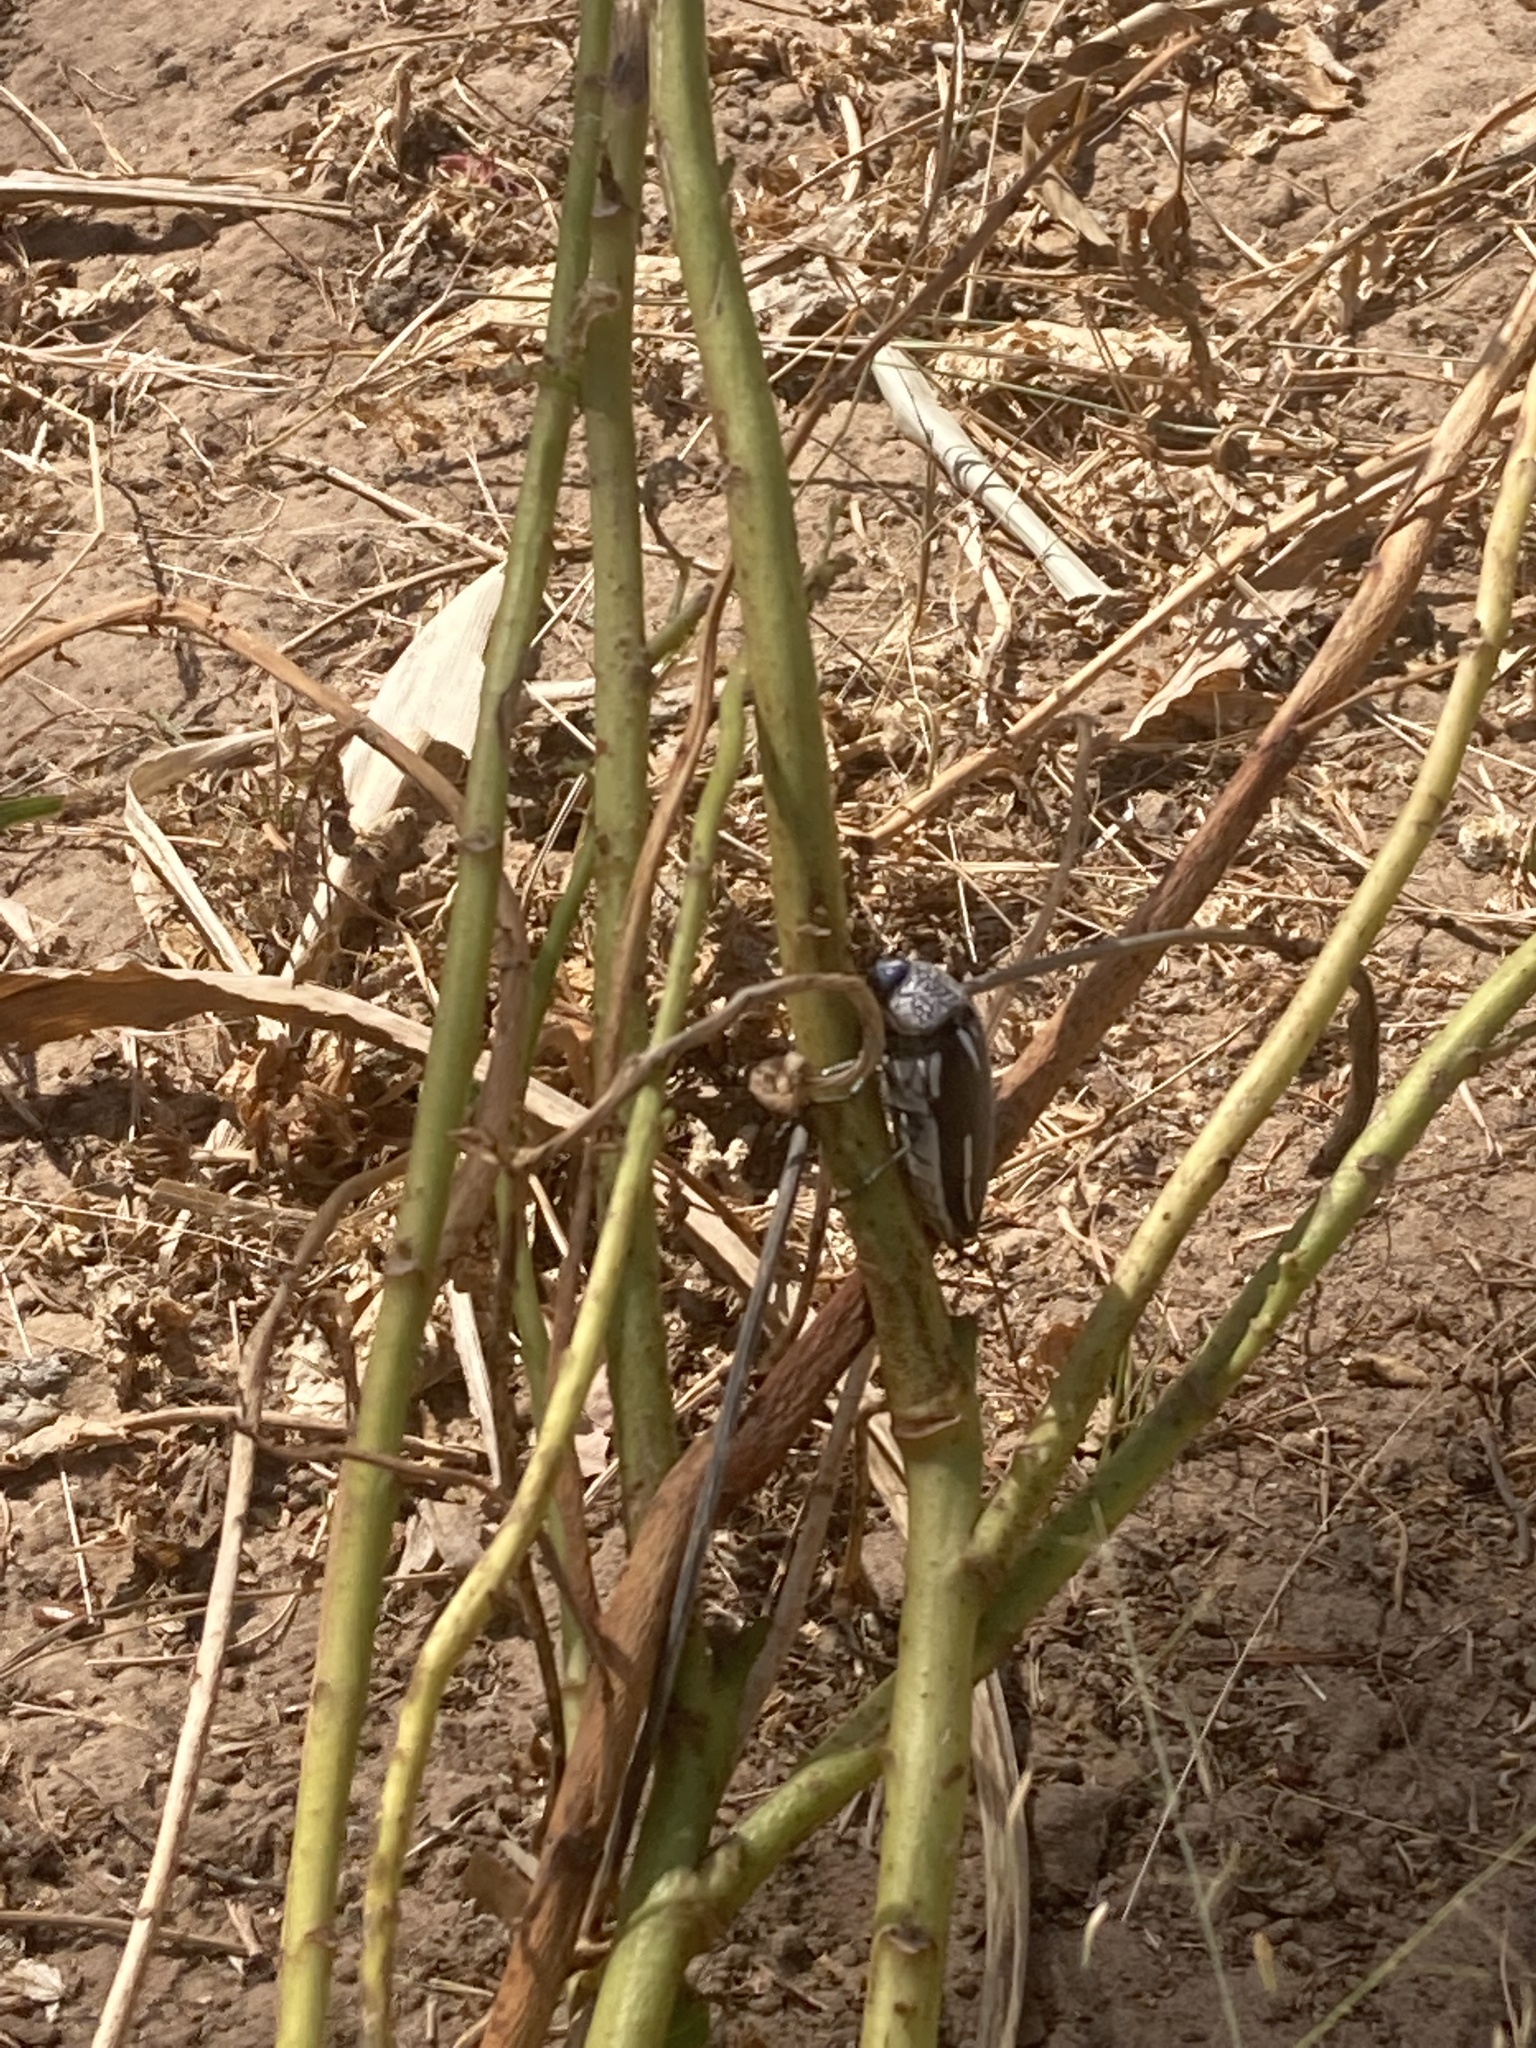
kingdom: Animalia
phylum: Arthropoda
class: Insecta
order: Coleoptera
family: Buprestidae
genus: Sternocera
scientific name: Sternocera interrupta
